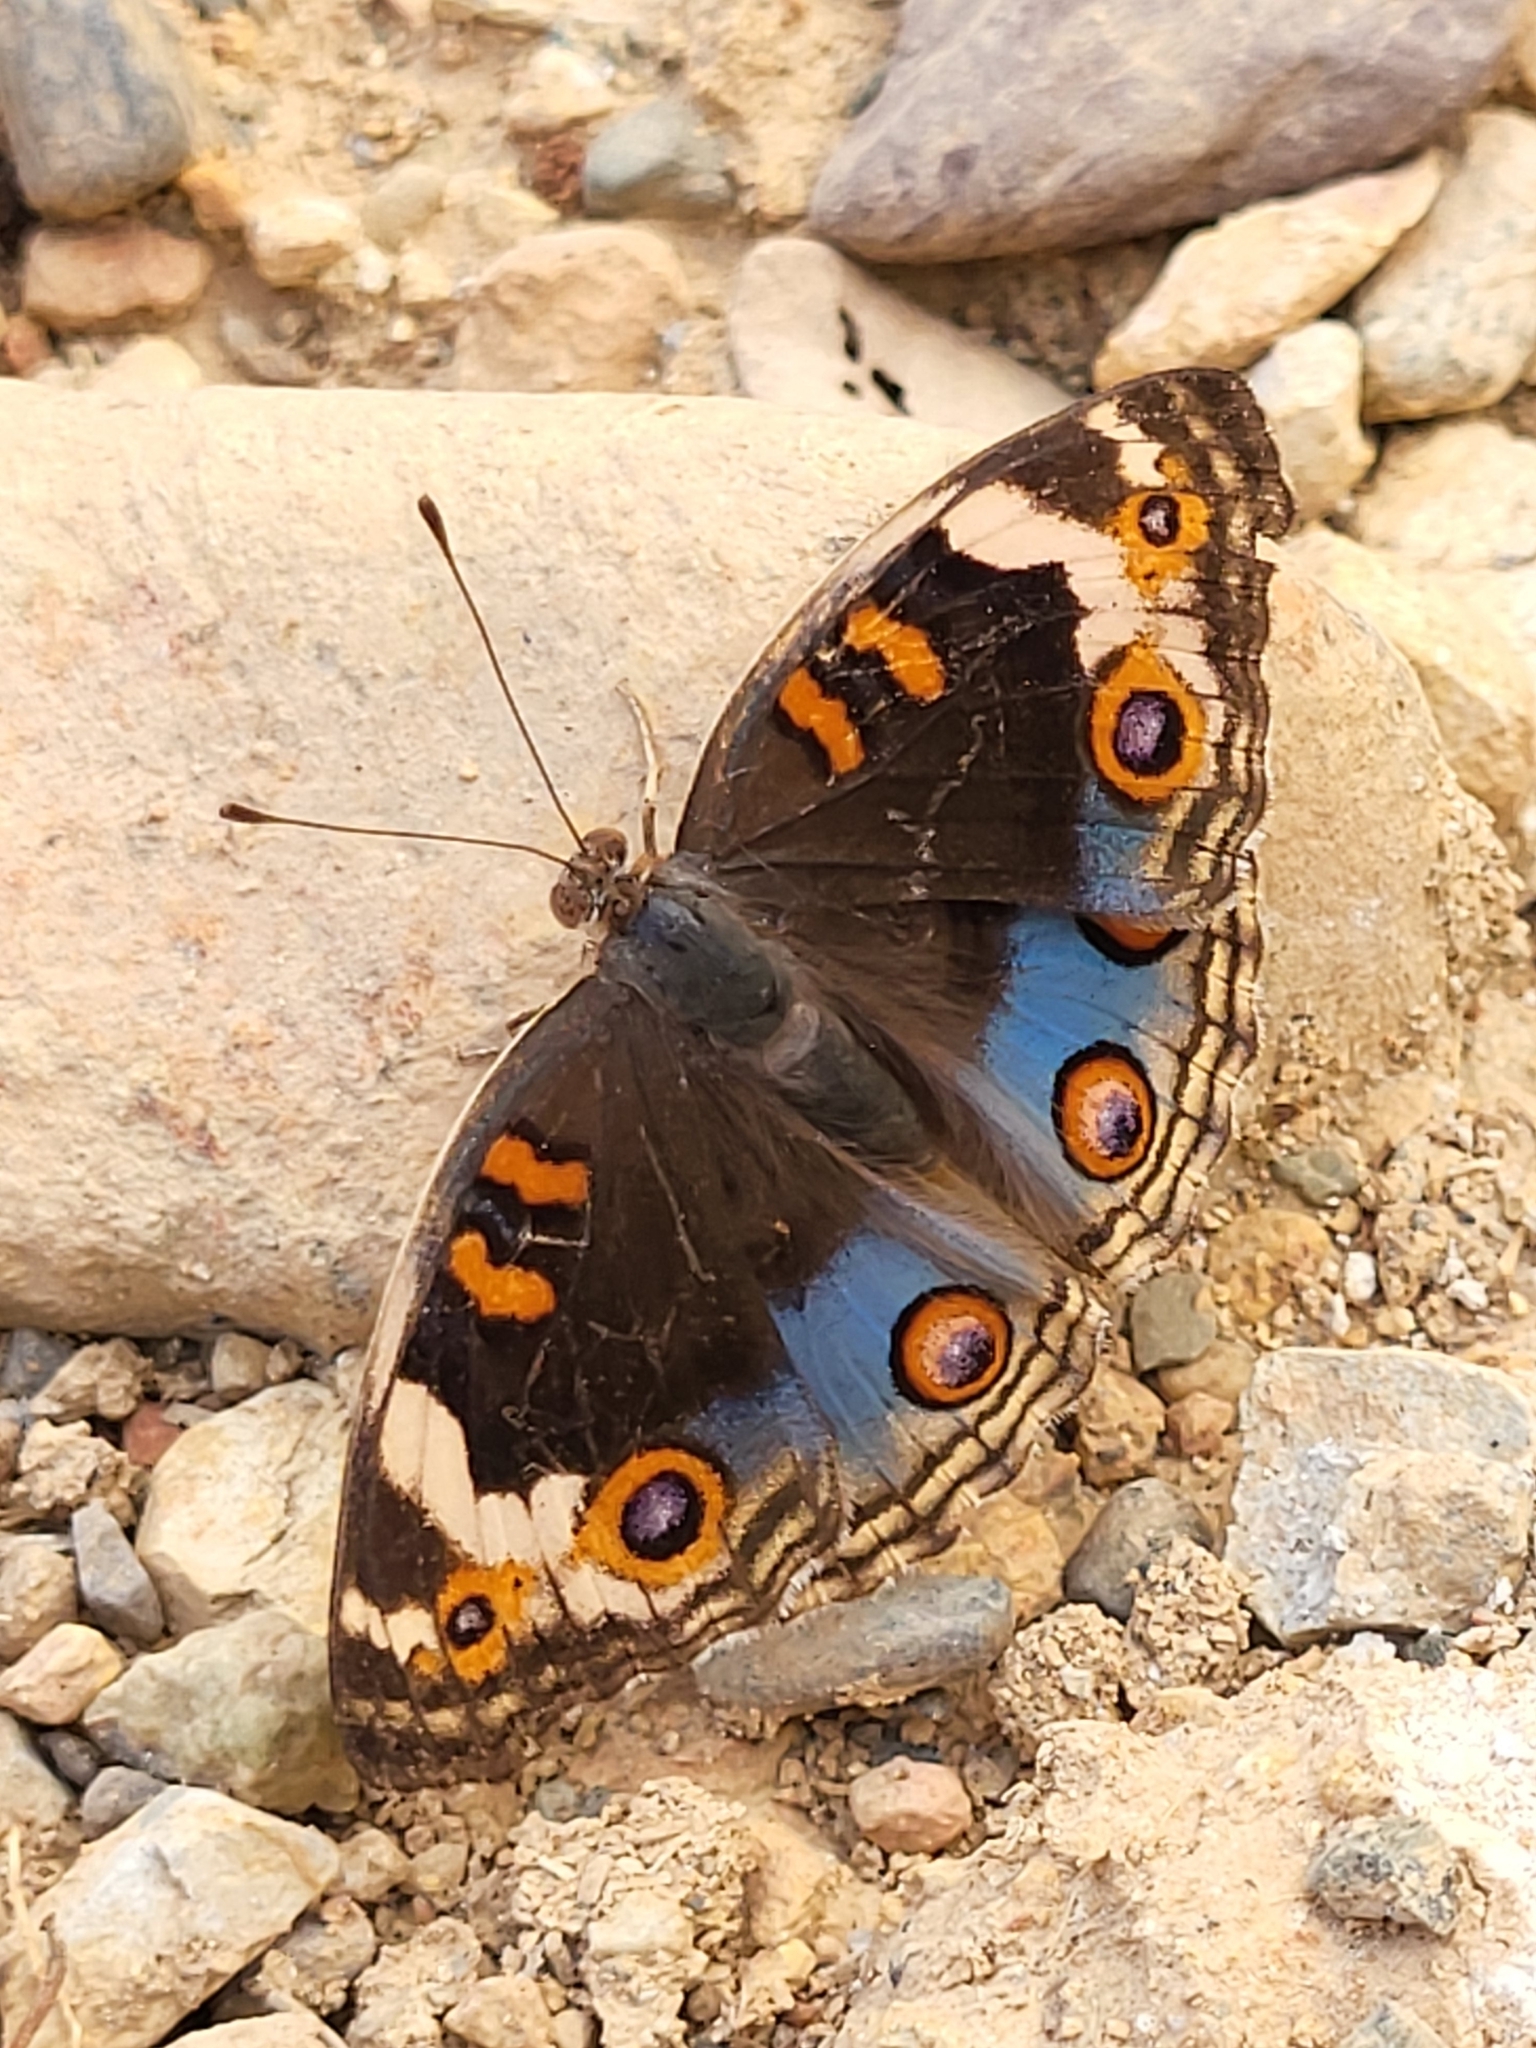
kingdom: Animalia
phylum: Arthropoda
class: Insecta
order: Lepidoptera
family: Nymphalidae
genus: Junonia
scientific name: Junonia orithya
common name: Blue pansy
